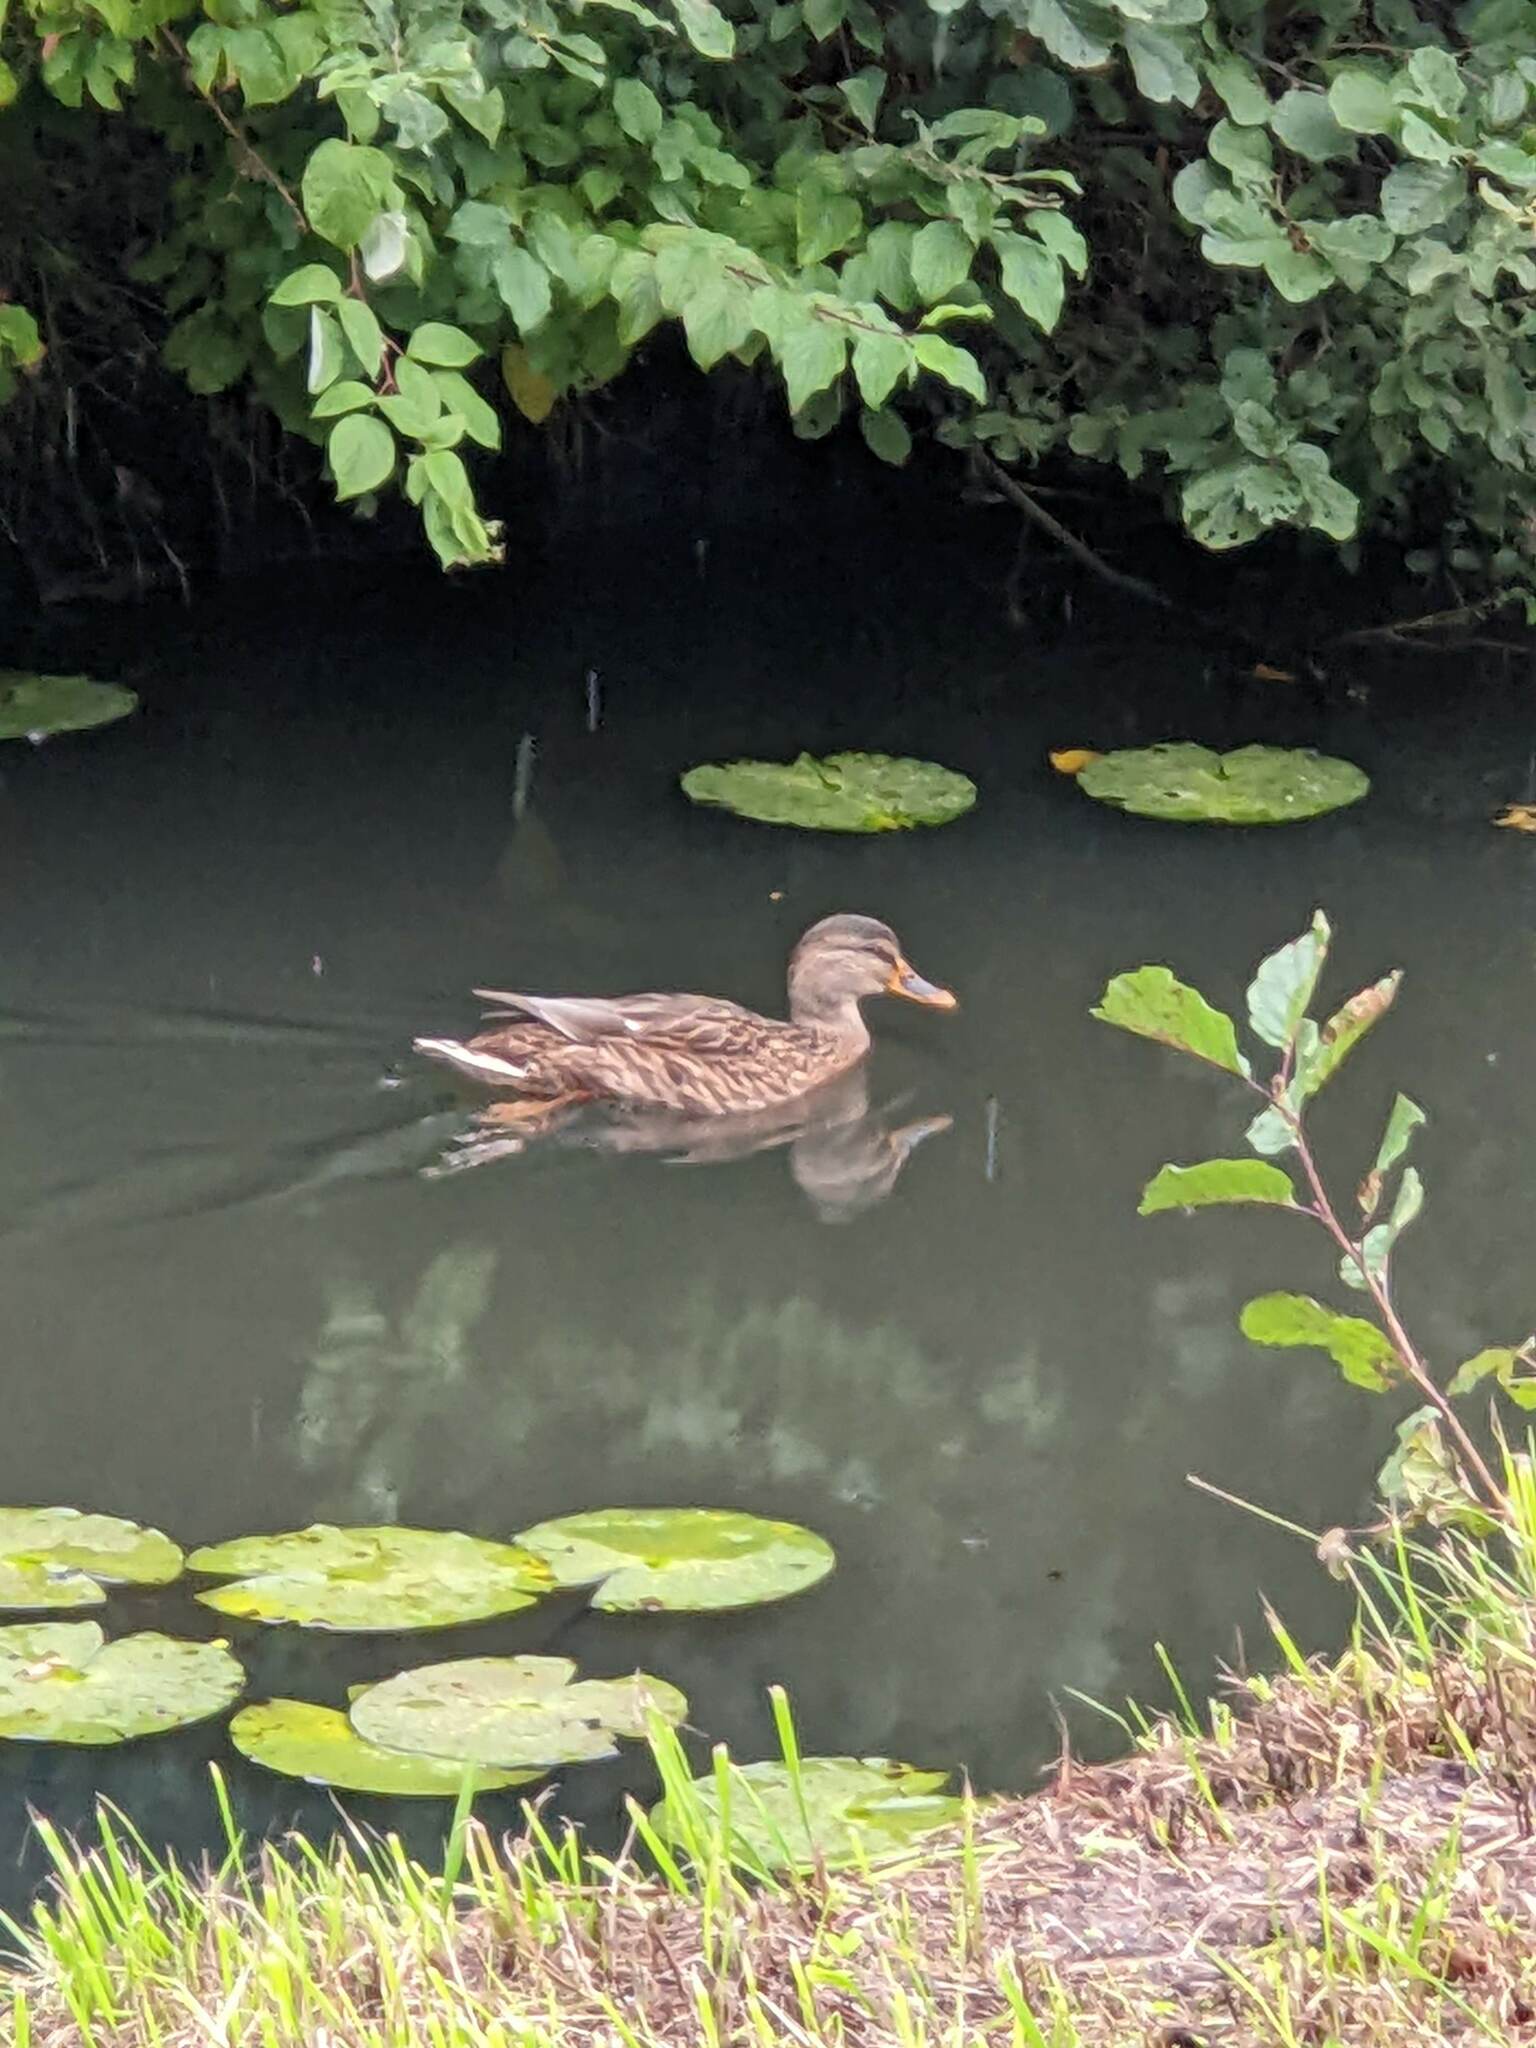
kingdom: Animalia
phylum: Chordata
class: Aves
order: Anseriformes
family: Anatidae
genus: Anas
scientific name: Anas platyrhynchos
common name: Mallard
